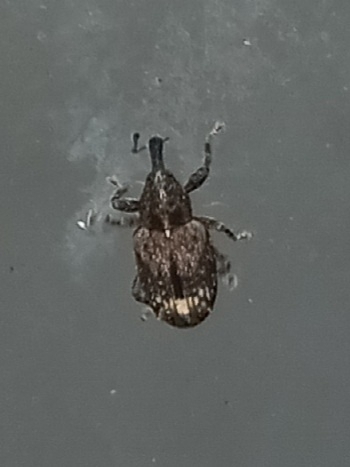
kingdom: Animalia
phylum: Arthropoda
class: Insecta
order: Coleoptera
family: Curculionidae
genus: Plocetes
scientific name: Plocetes ulmi
